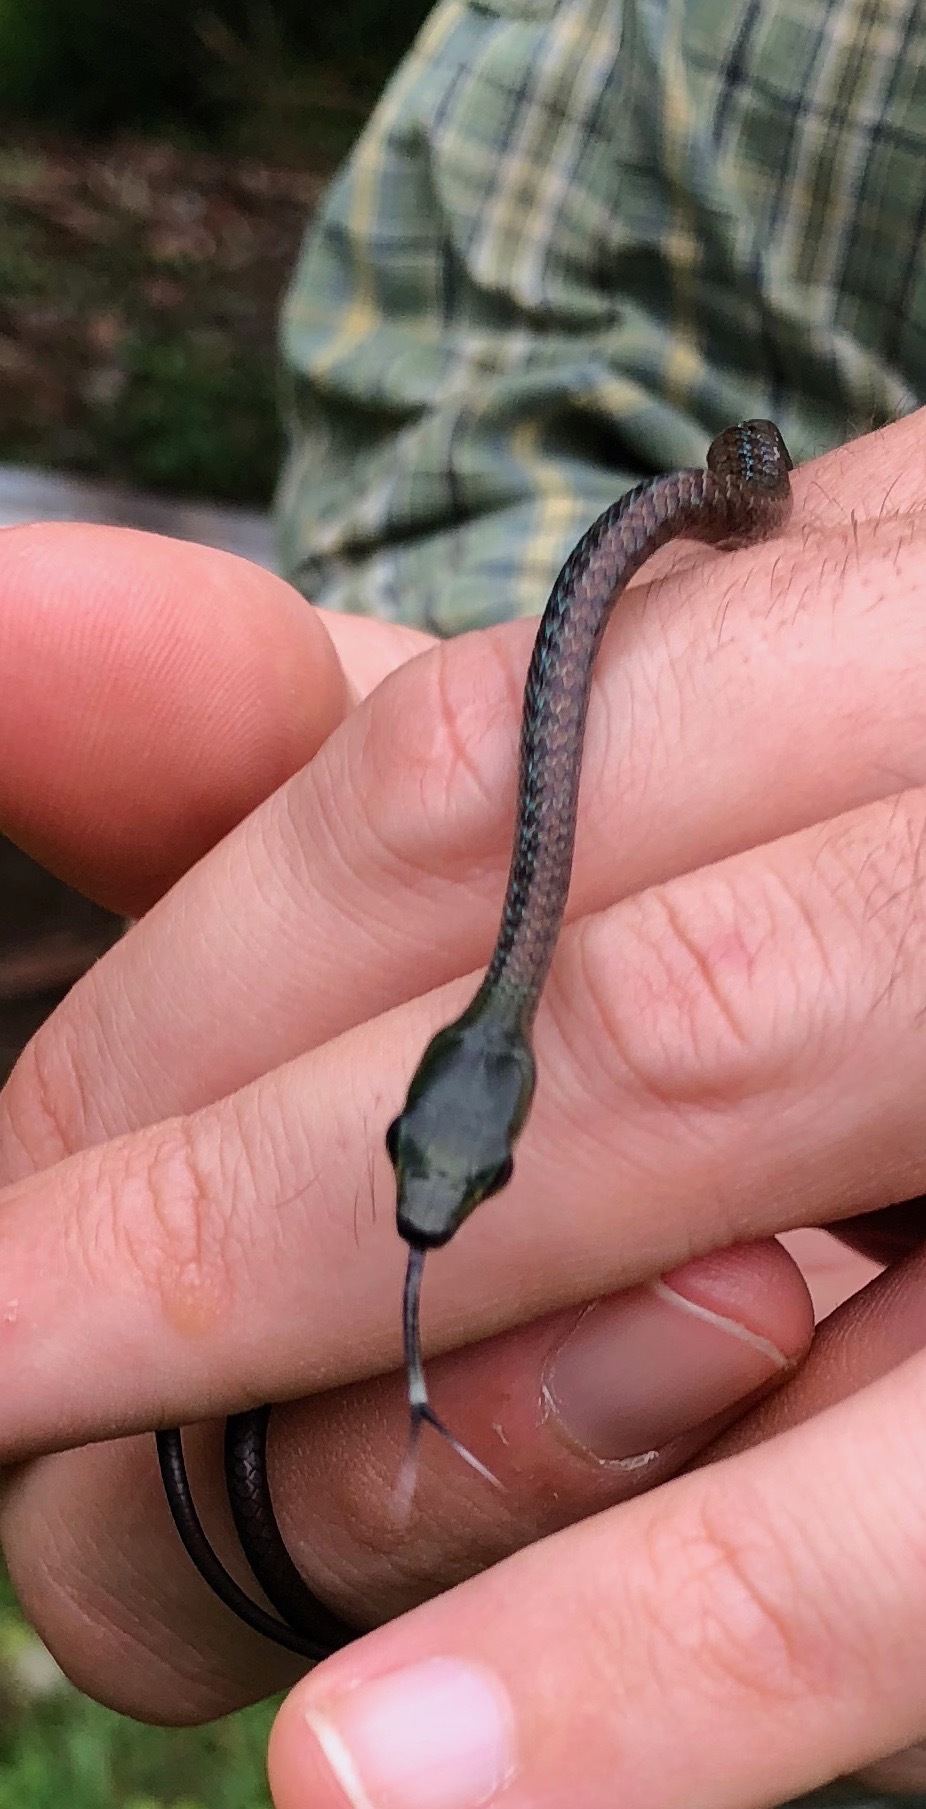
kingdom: Animalia
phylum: Chordata
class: Squamata
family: Colubridae
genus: Leptophis
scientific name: Leptophis depressirostris
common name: Cope's parrot snake
